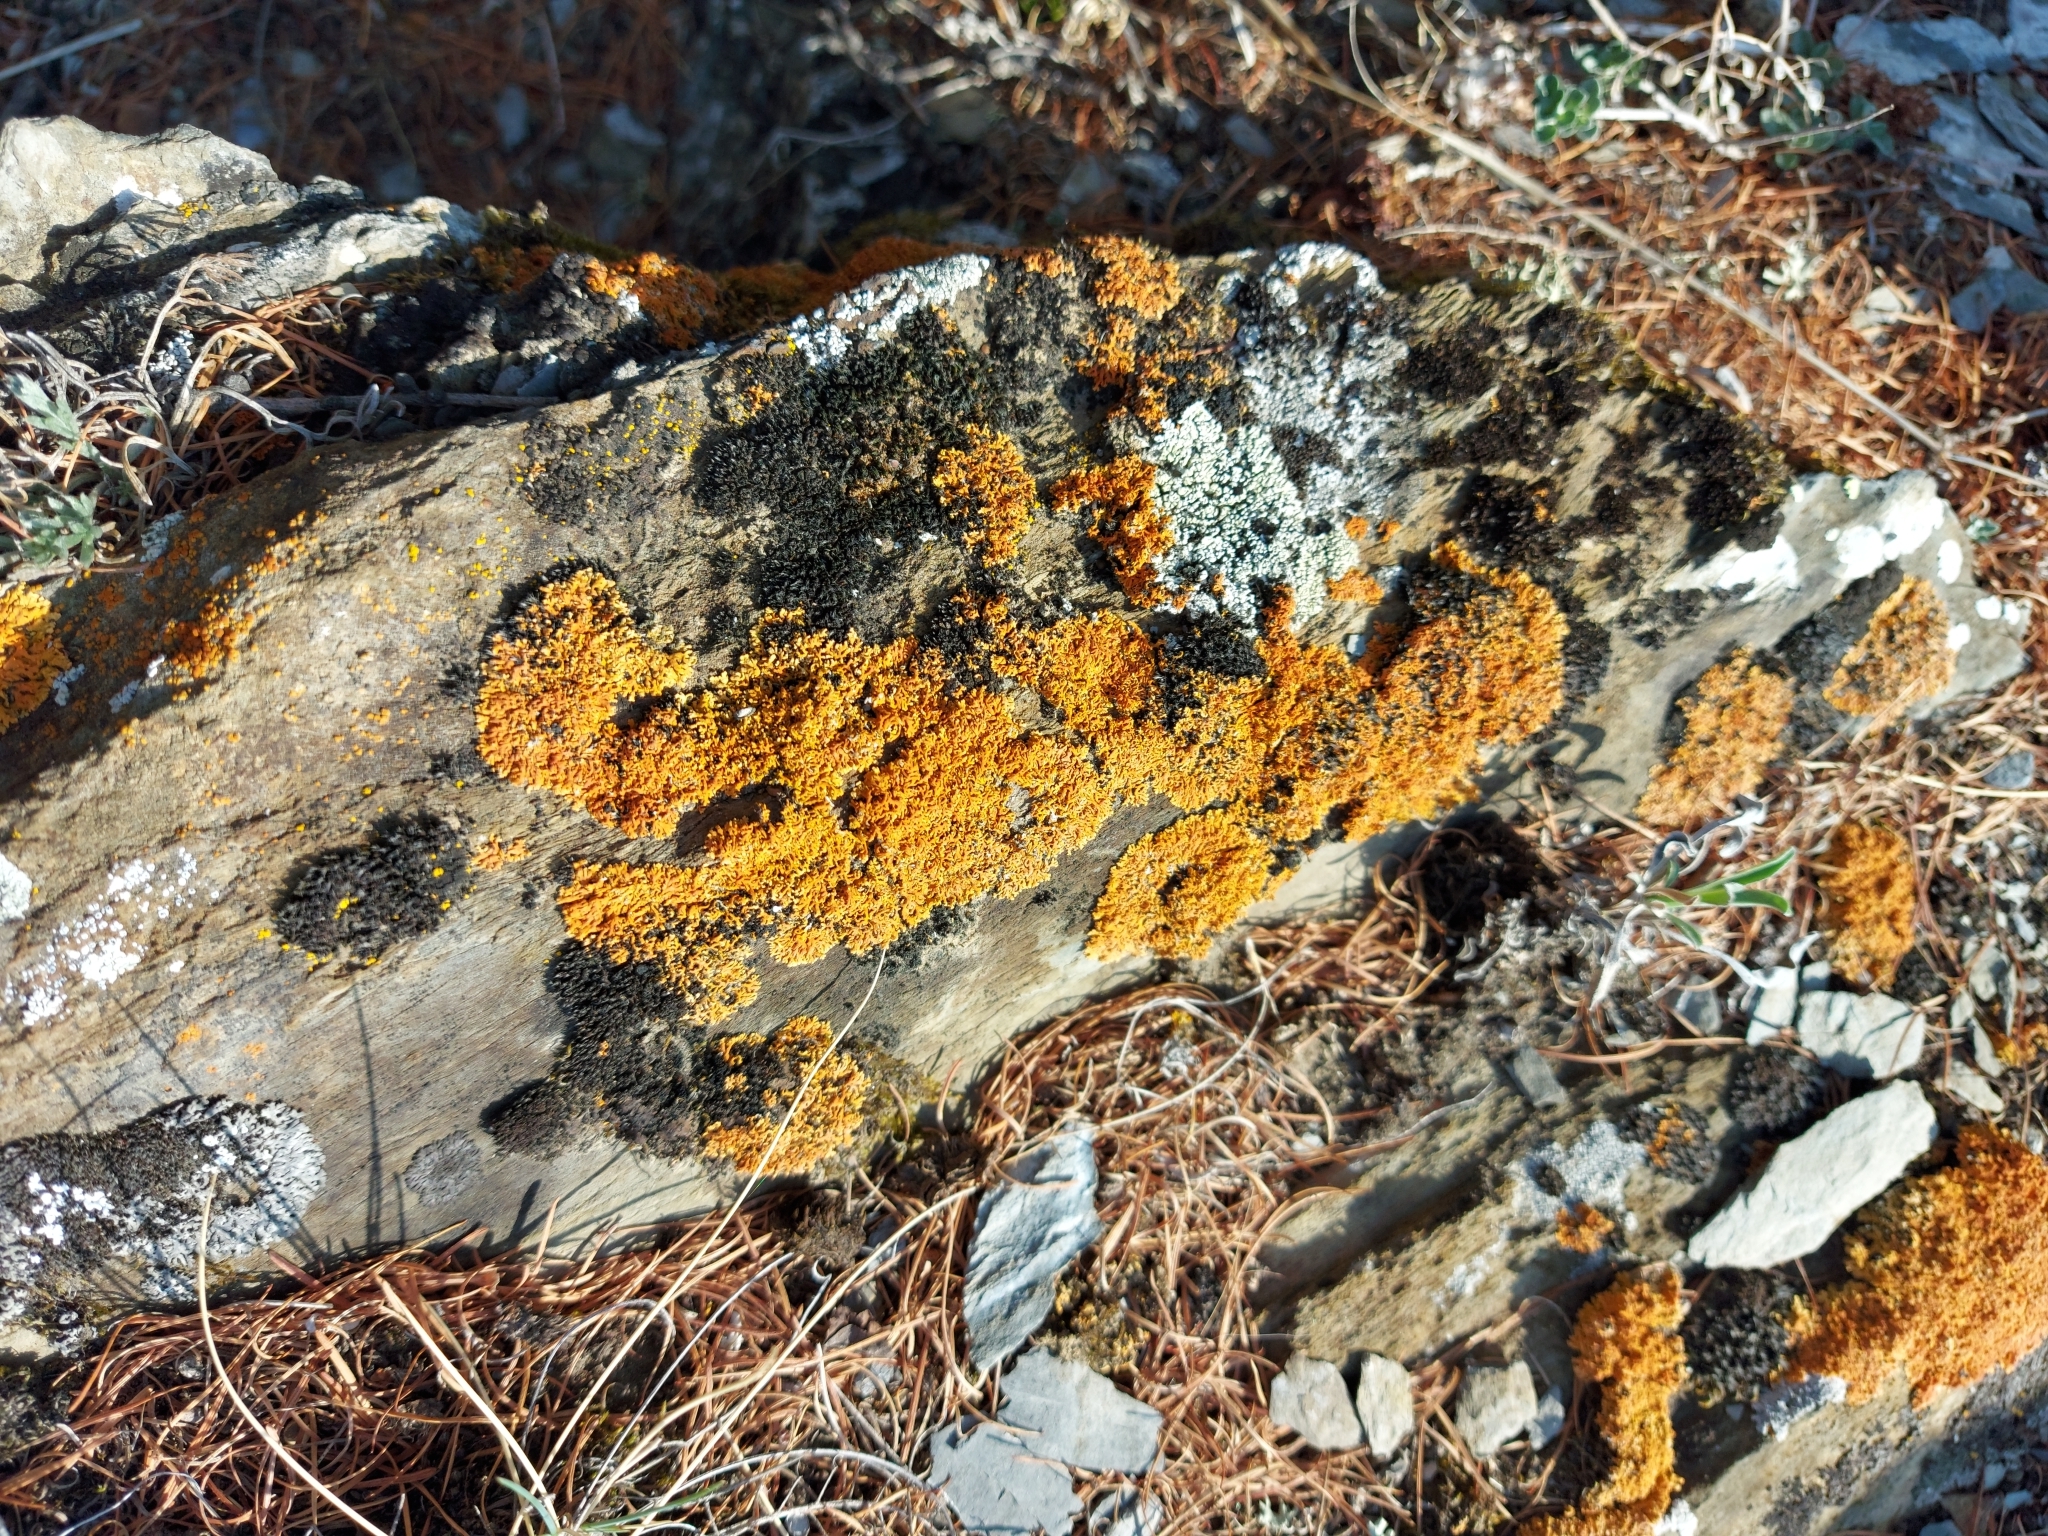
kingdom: Fungi
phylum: Ascomycota
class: Lecanoromycetes
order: Teloschistales
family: Teloschistaceae
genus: Polycauliona
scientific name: Polycauliona candelaria
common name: Shrubby sunburst lichen
